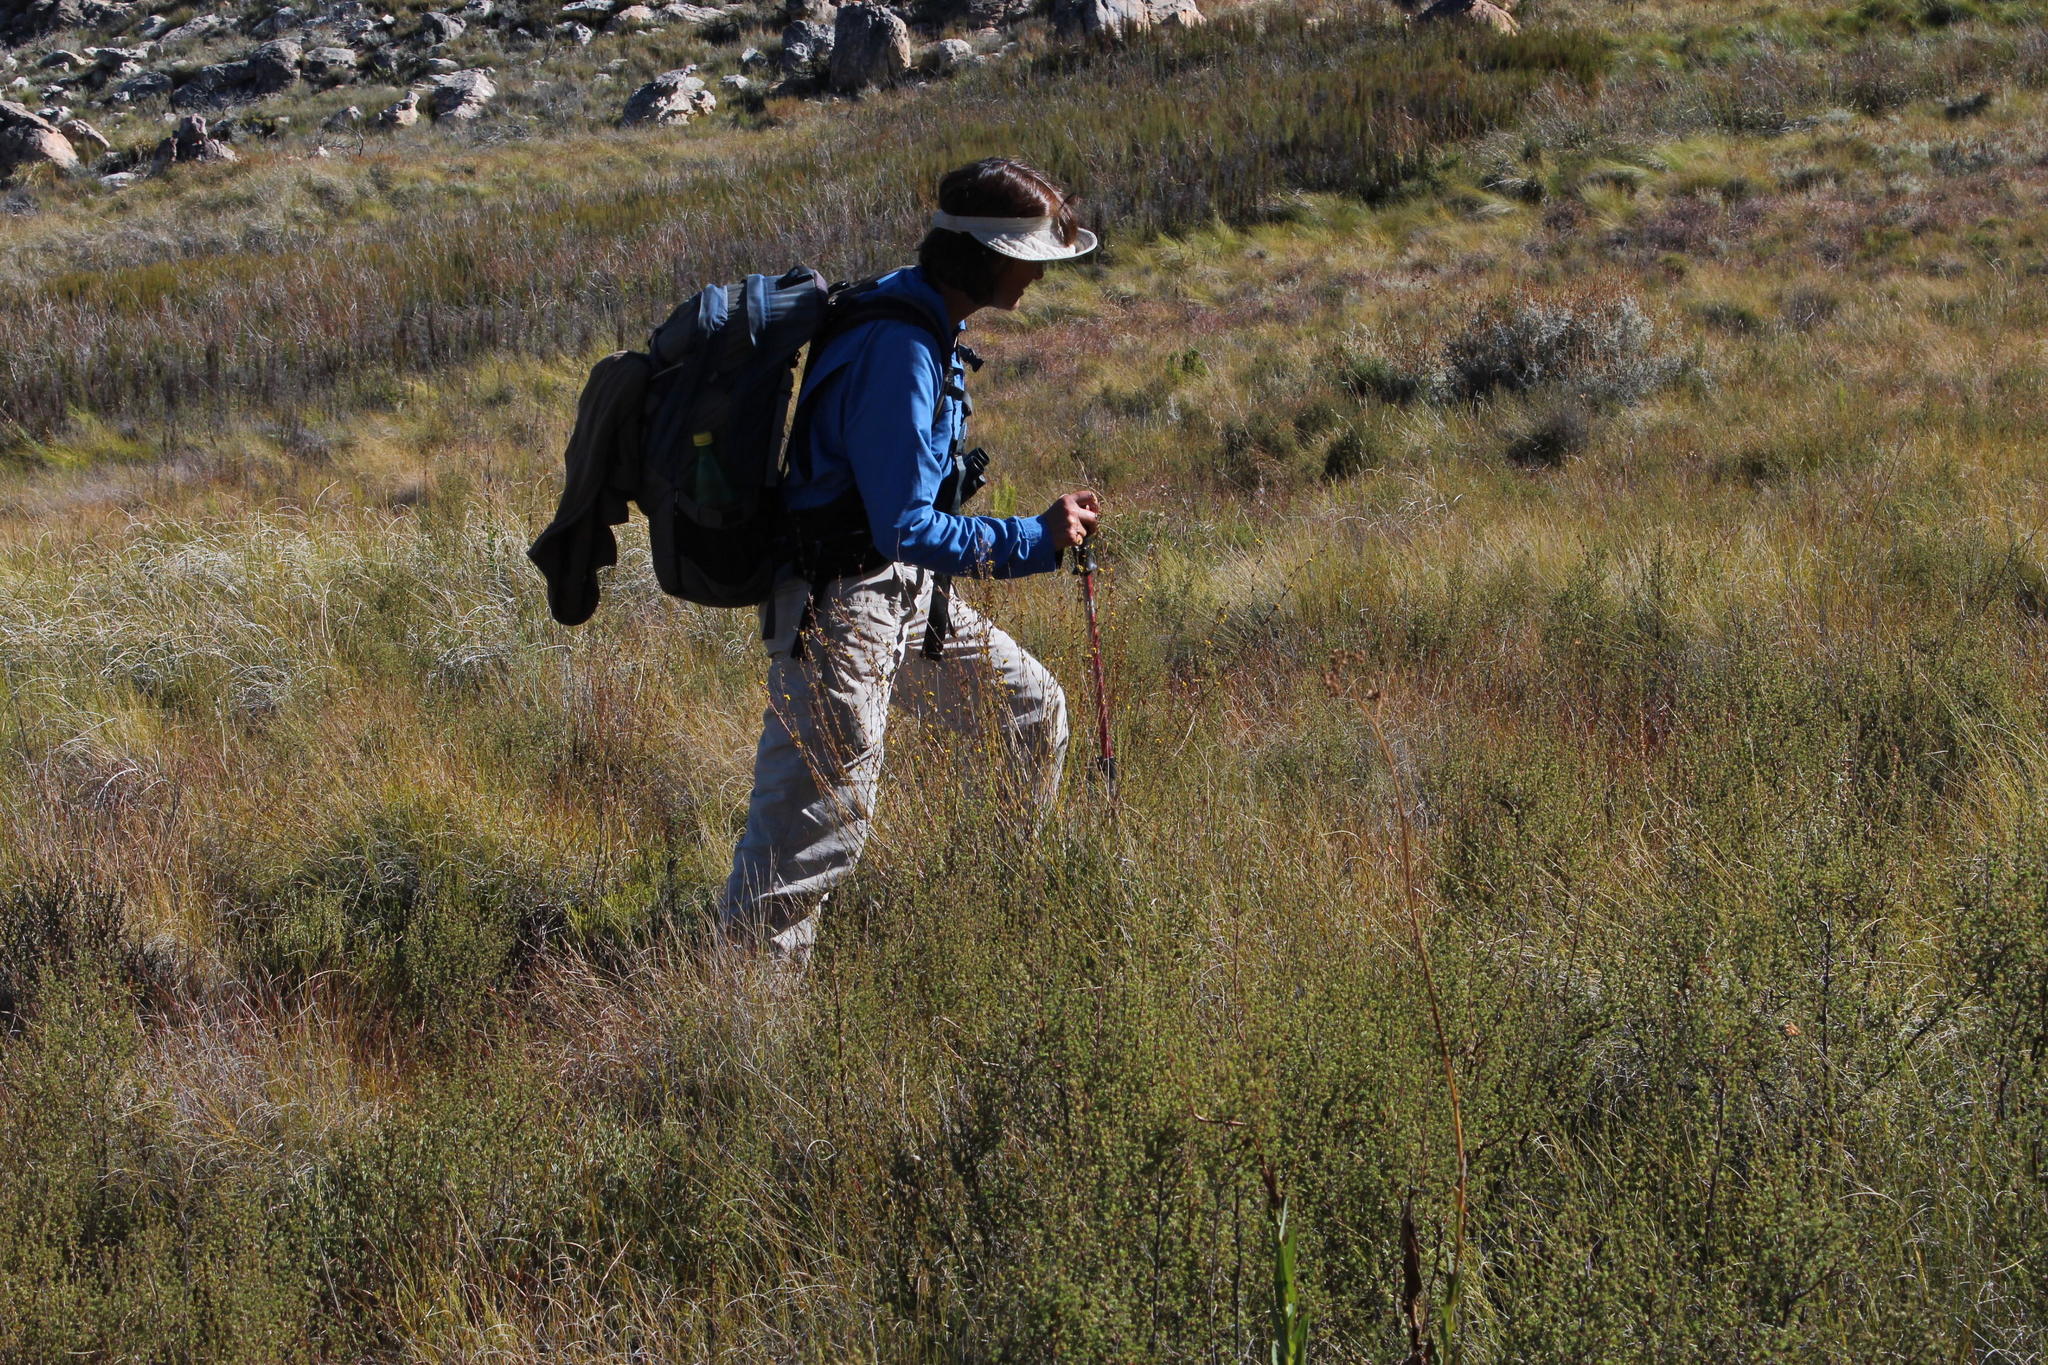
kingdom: Plantae
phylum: Tracheophyta
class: Liliopsida
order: Poales
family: Restionaceae
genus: Elegia
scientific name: Elegia capensis
